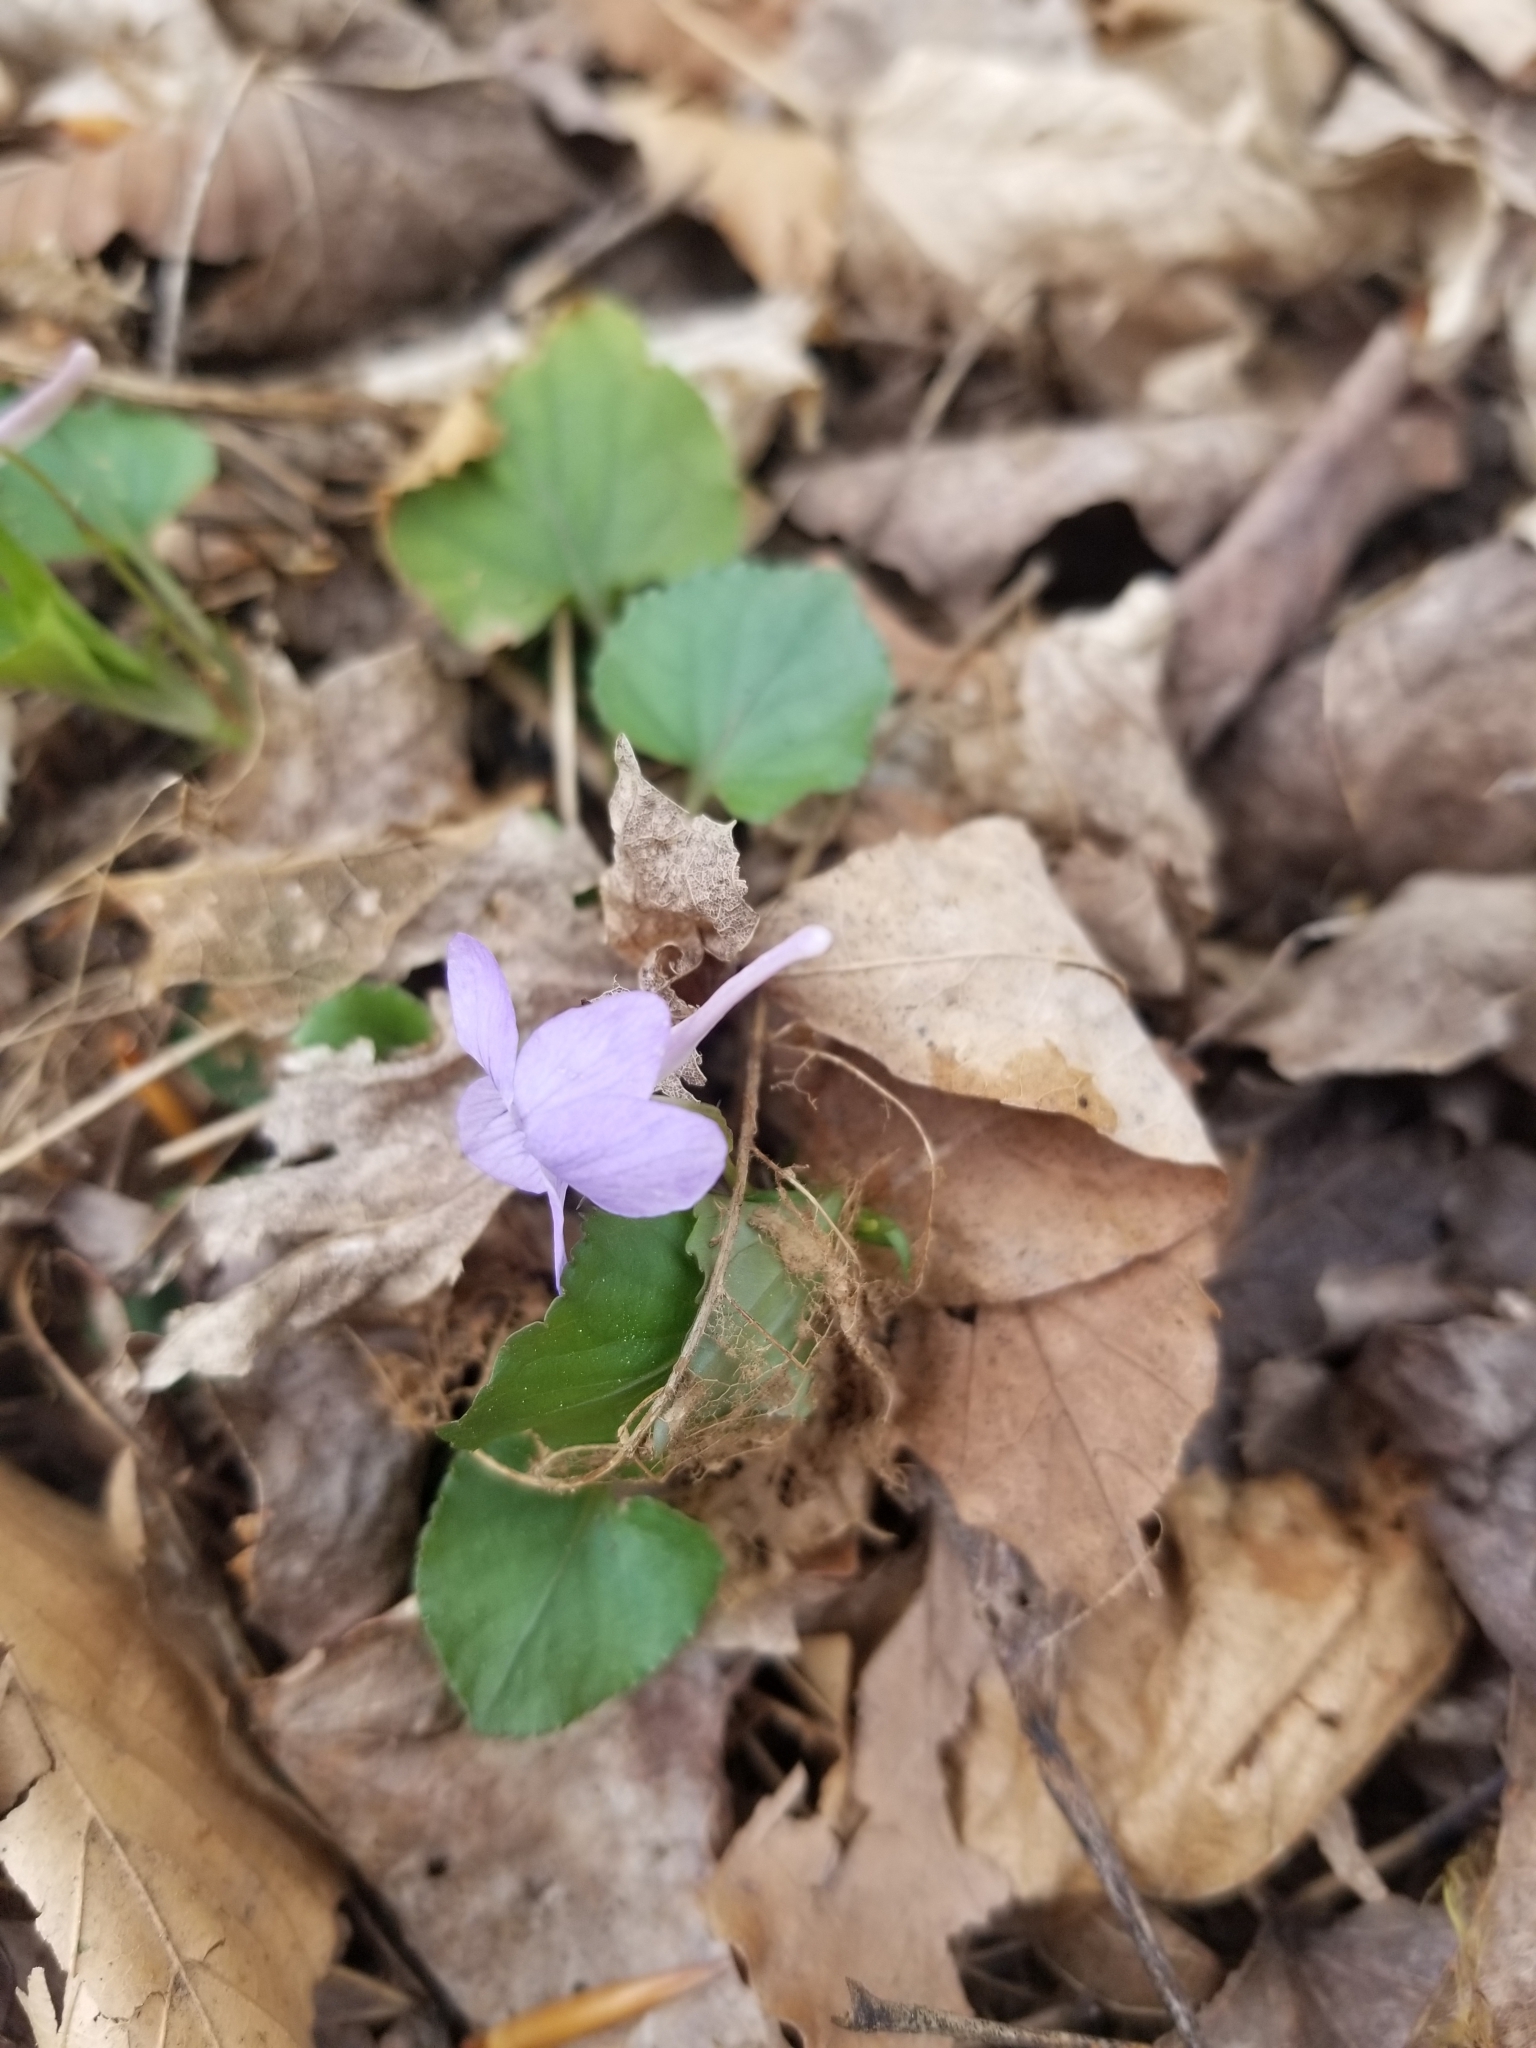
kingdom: Plantae
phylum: Tracheophyta
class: Magnoliopsida
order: Malpighiales
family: Violaceae
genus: Viola
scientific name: Viola rostrata
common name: Long-spur violet
